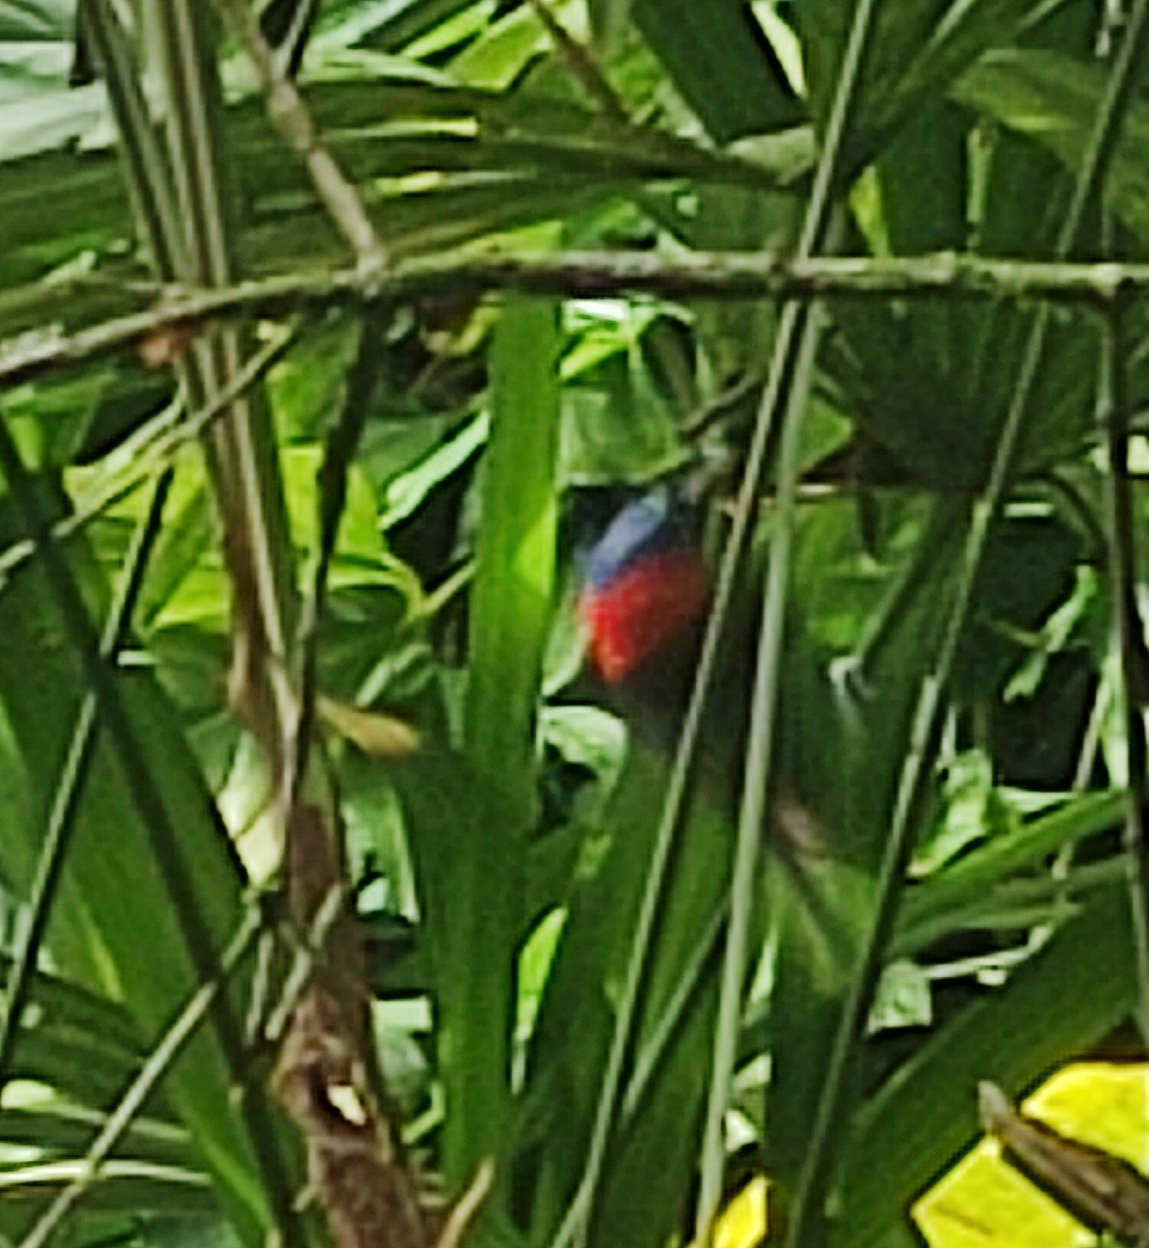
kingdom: Animalia
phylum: Chordata
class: Aves
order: Passeriformes
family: Thraupidae
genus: Tangara
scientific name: Tangara cyanocephala
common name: Red-necked tanager
